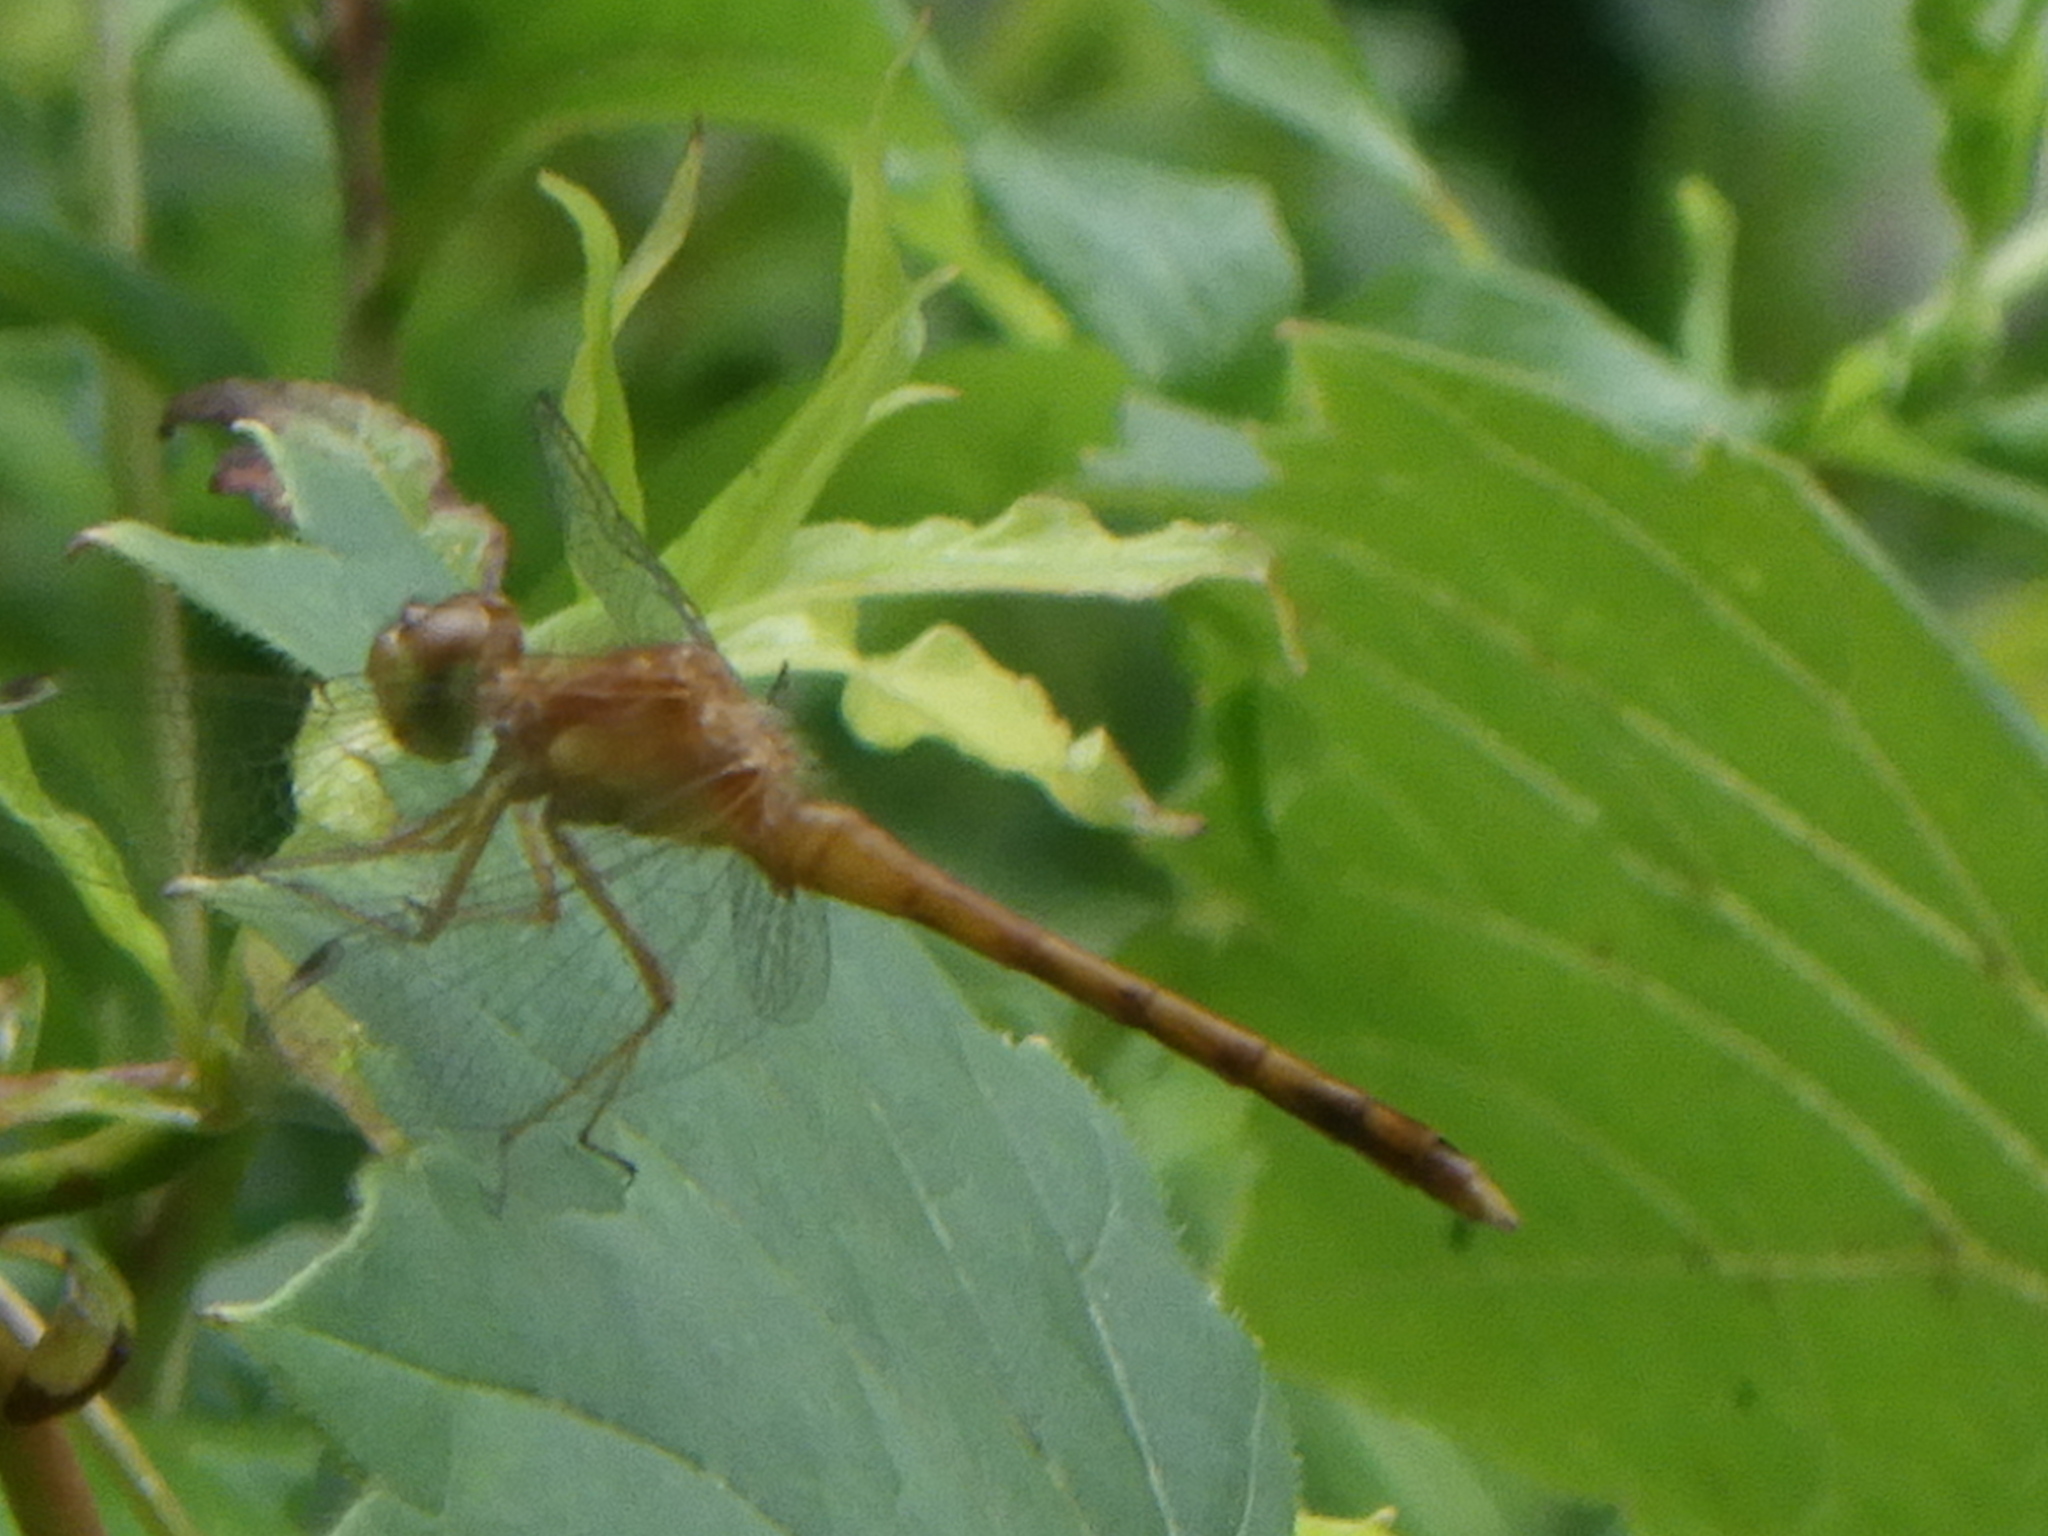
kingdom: Animalia
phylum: Arthropoda
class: Insecta
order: Odonata
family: Libellulidae
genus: Sympetrum
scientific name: Sympetrum vicinum
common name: Autumn meadowhawk
